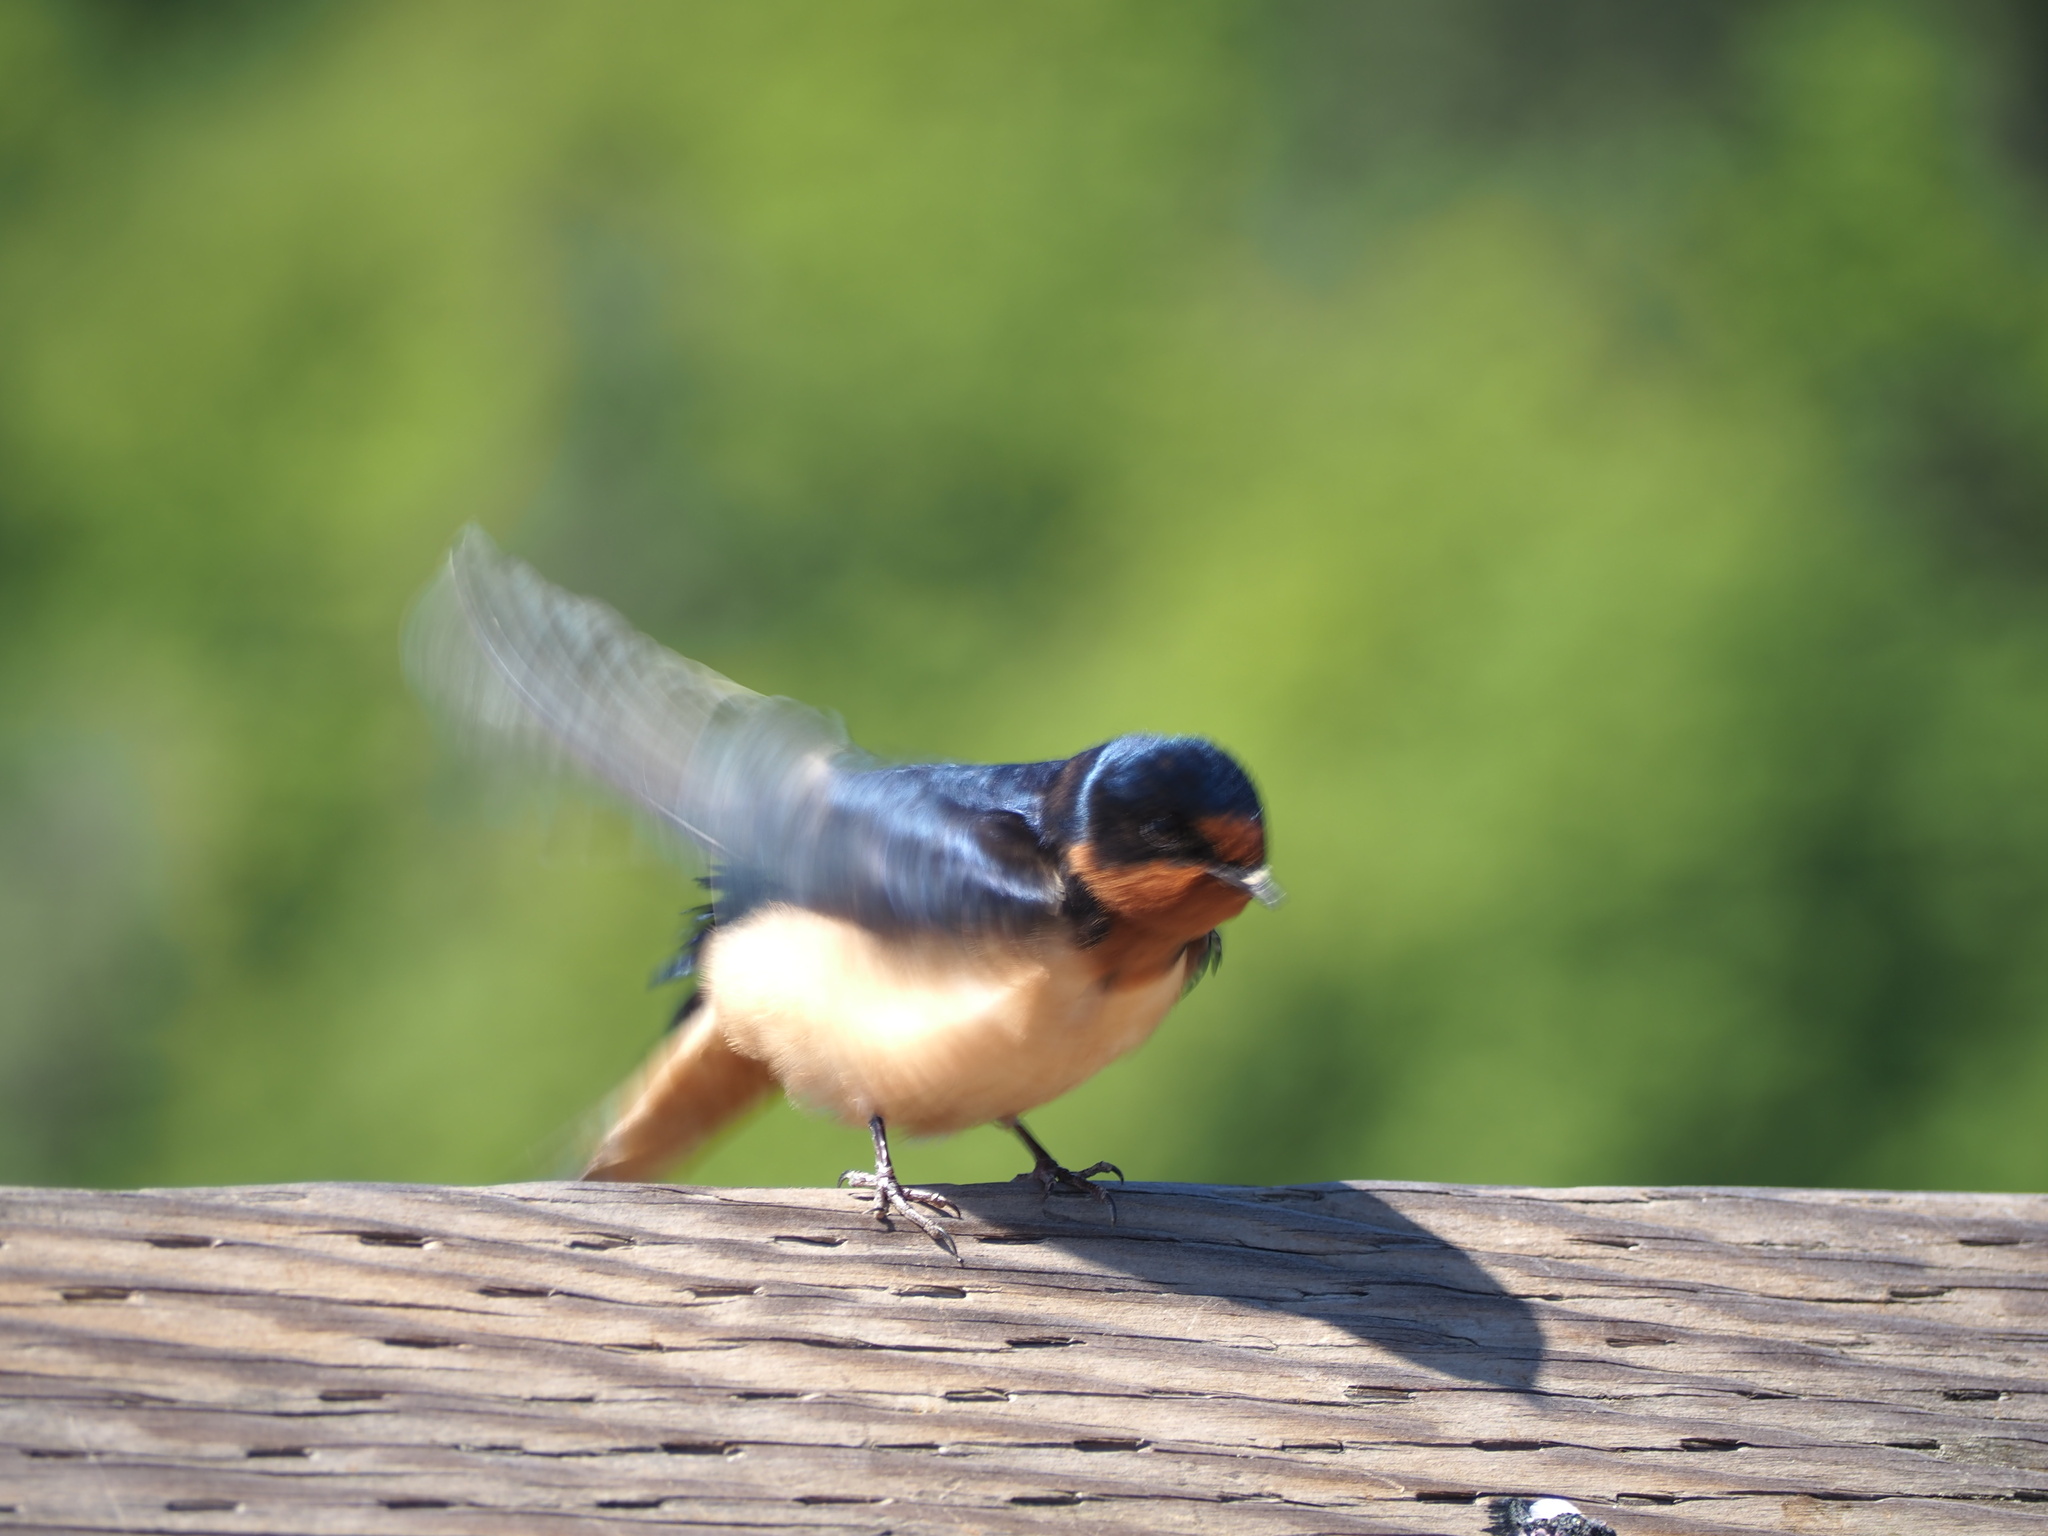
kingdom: Animalia
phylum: Chordata
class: Aves
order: Passeriformes
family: Hirundinidae
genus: Hirundo
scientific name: Hirundo rustica
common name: Barn swallow
